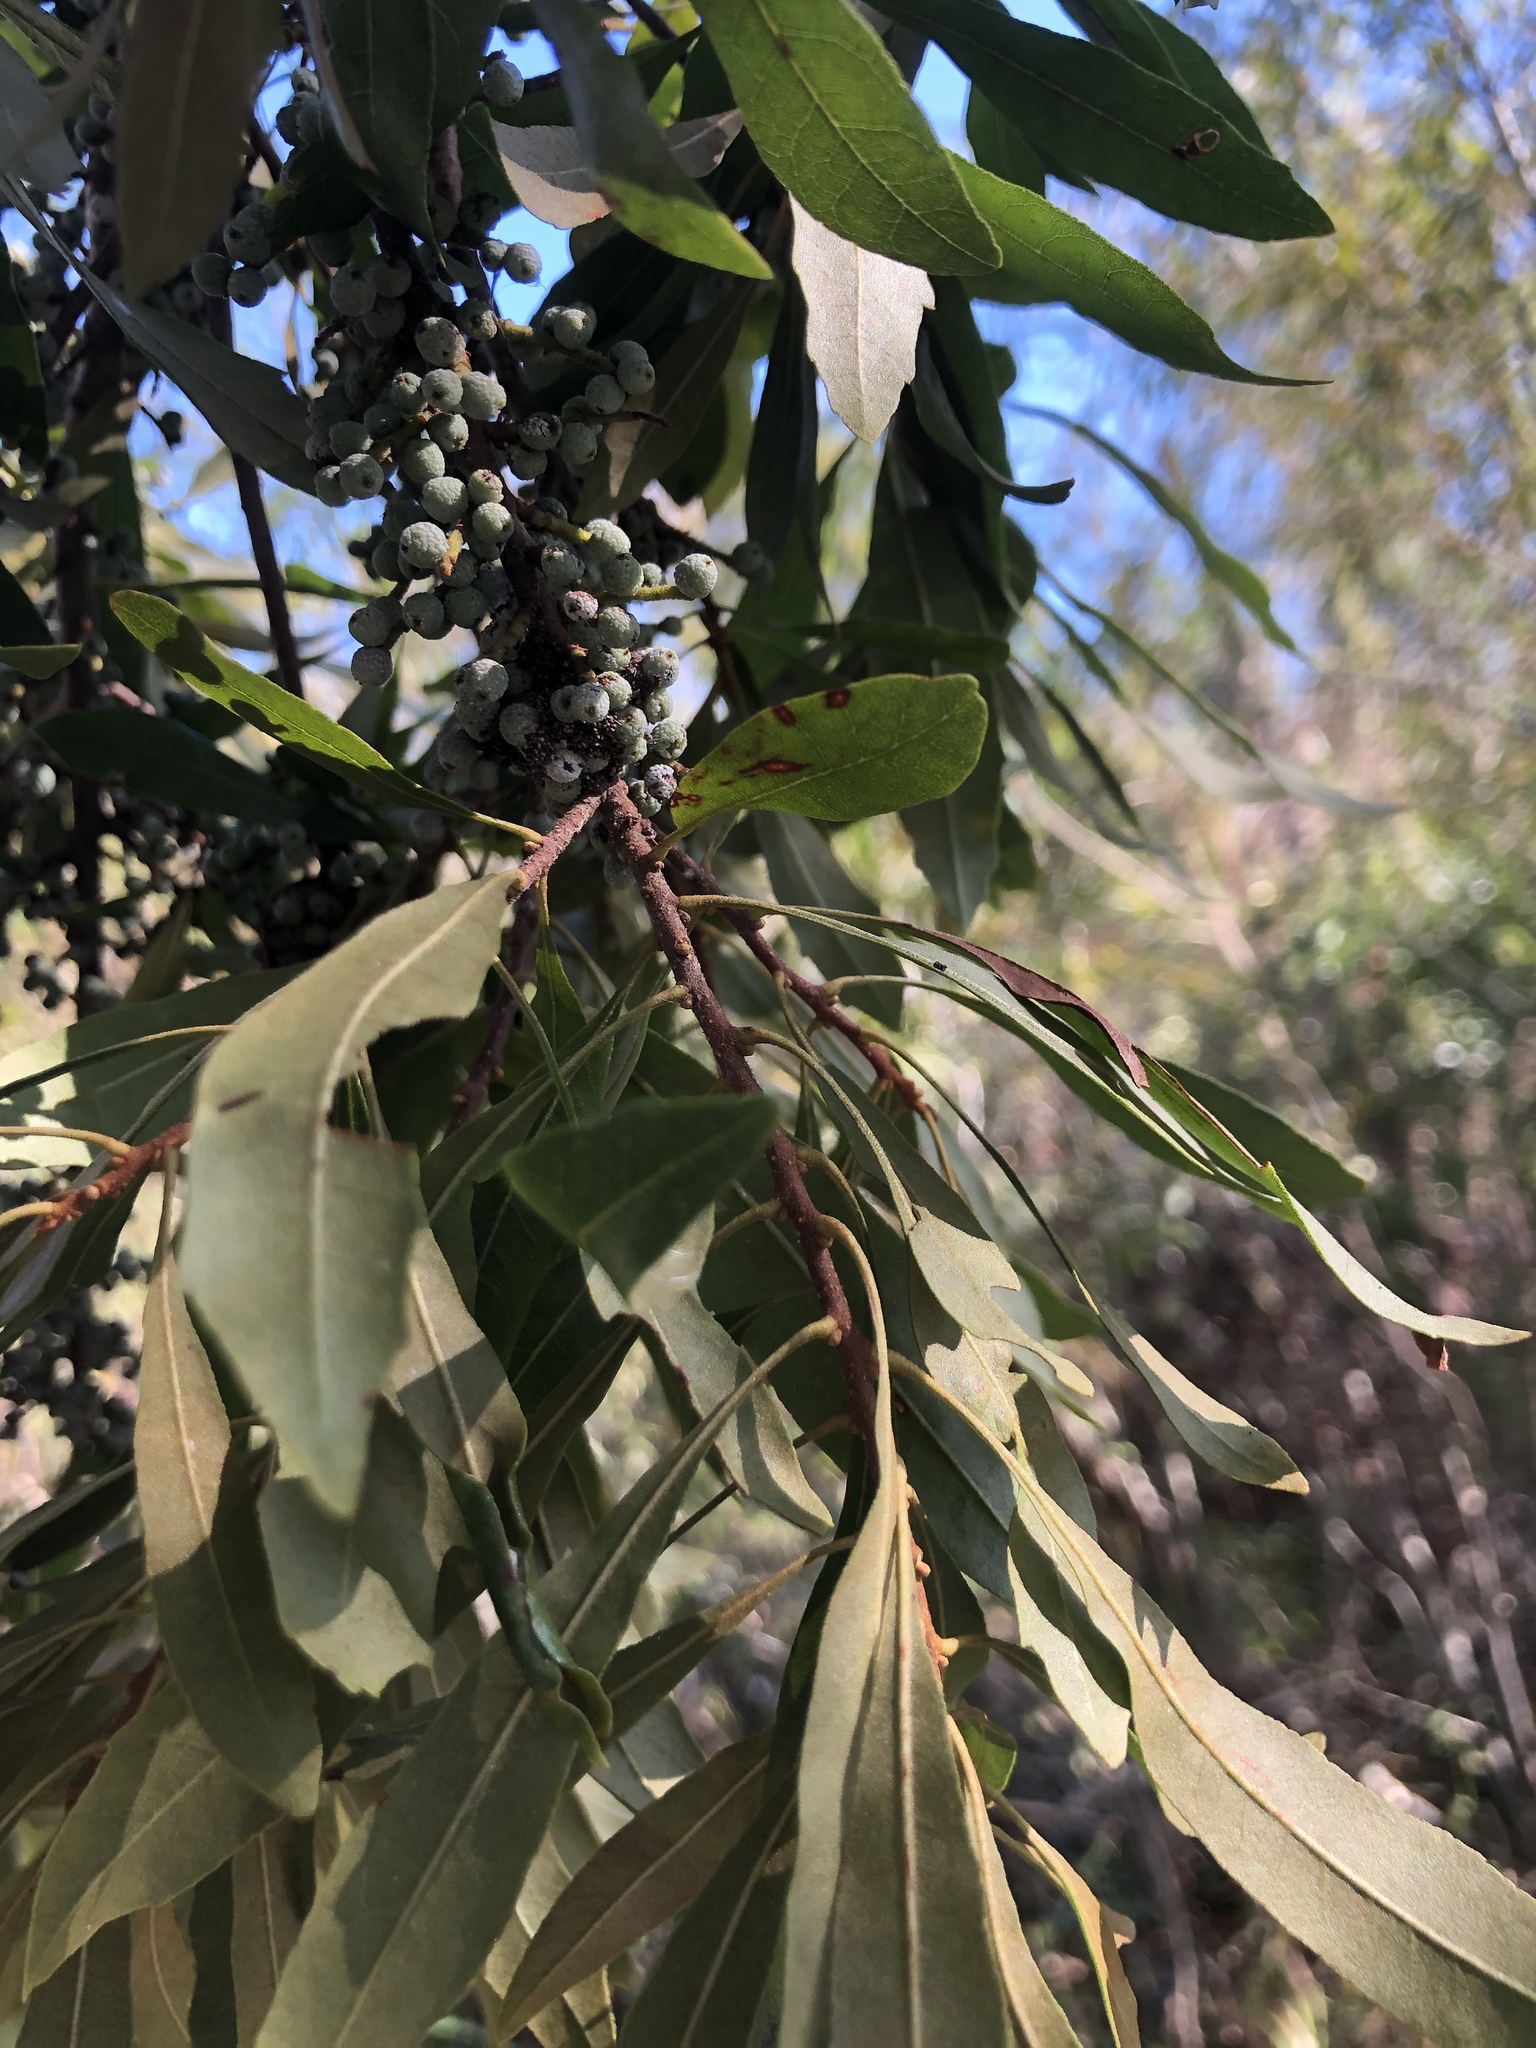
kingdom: Plantae
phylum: Tracheophyta
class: Magnoliopsida
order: Fagales
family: Myricaceae
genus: Morella
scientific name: Morella cerifera
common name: Wax myrtle
